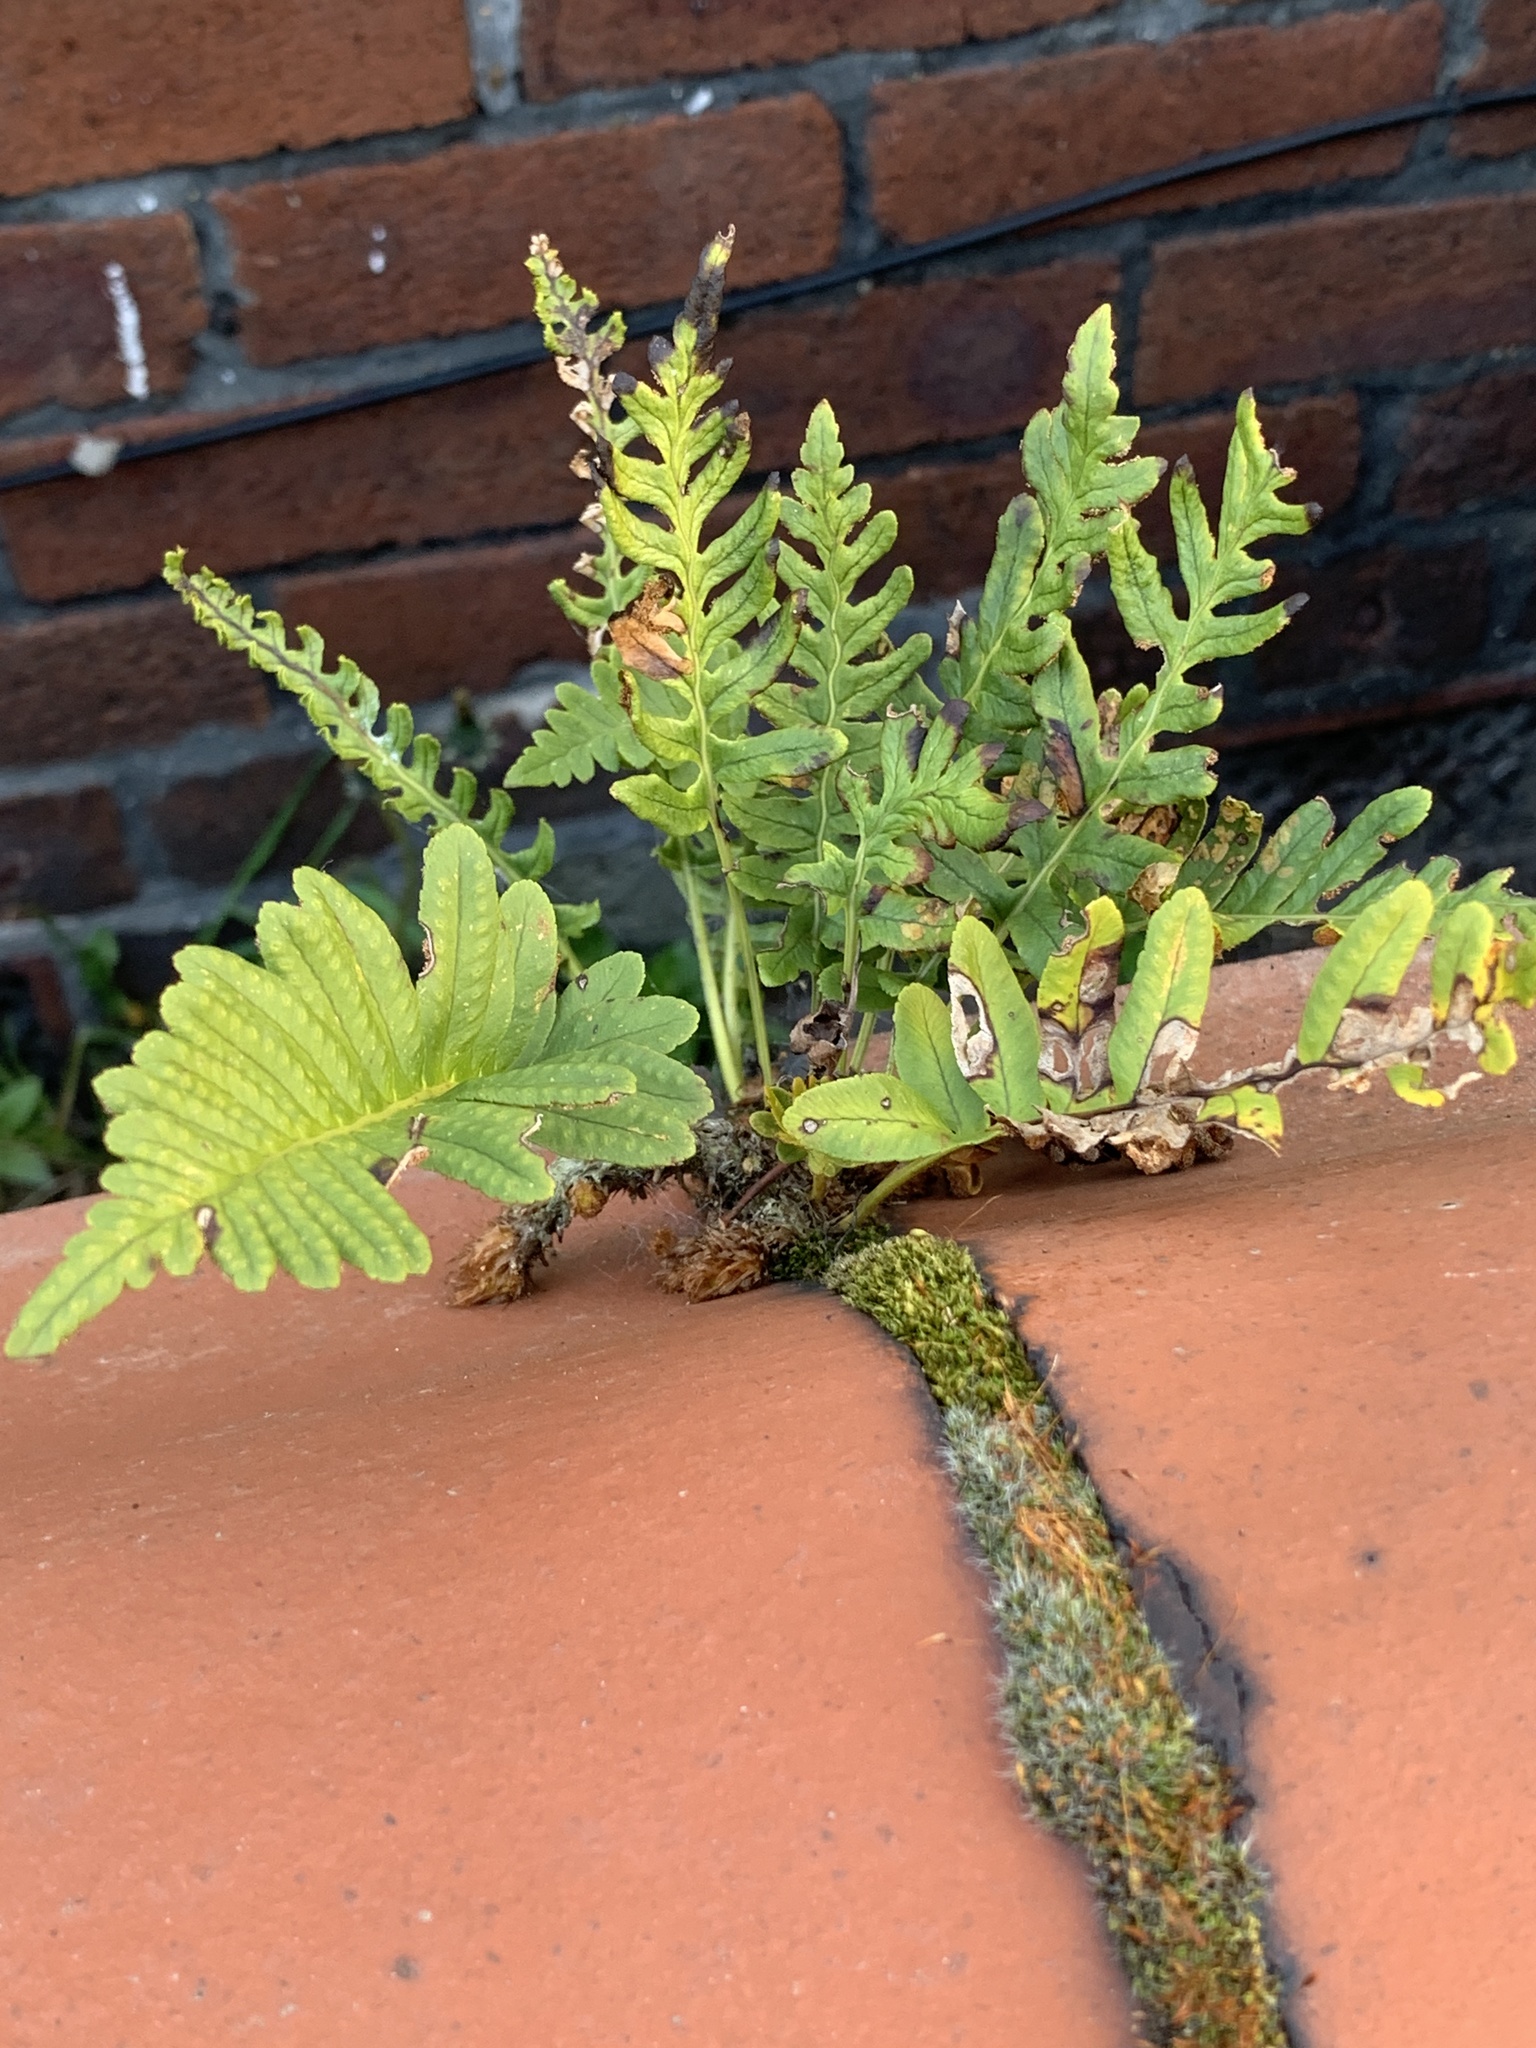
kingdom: Plantae
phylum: Tracheophyta
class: Polypodiopsida
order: Polypodiales
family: Polypodiaceae
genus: Polypodium
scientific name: Polypodium vulgare
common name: Common polypody
